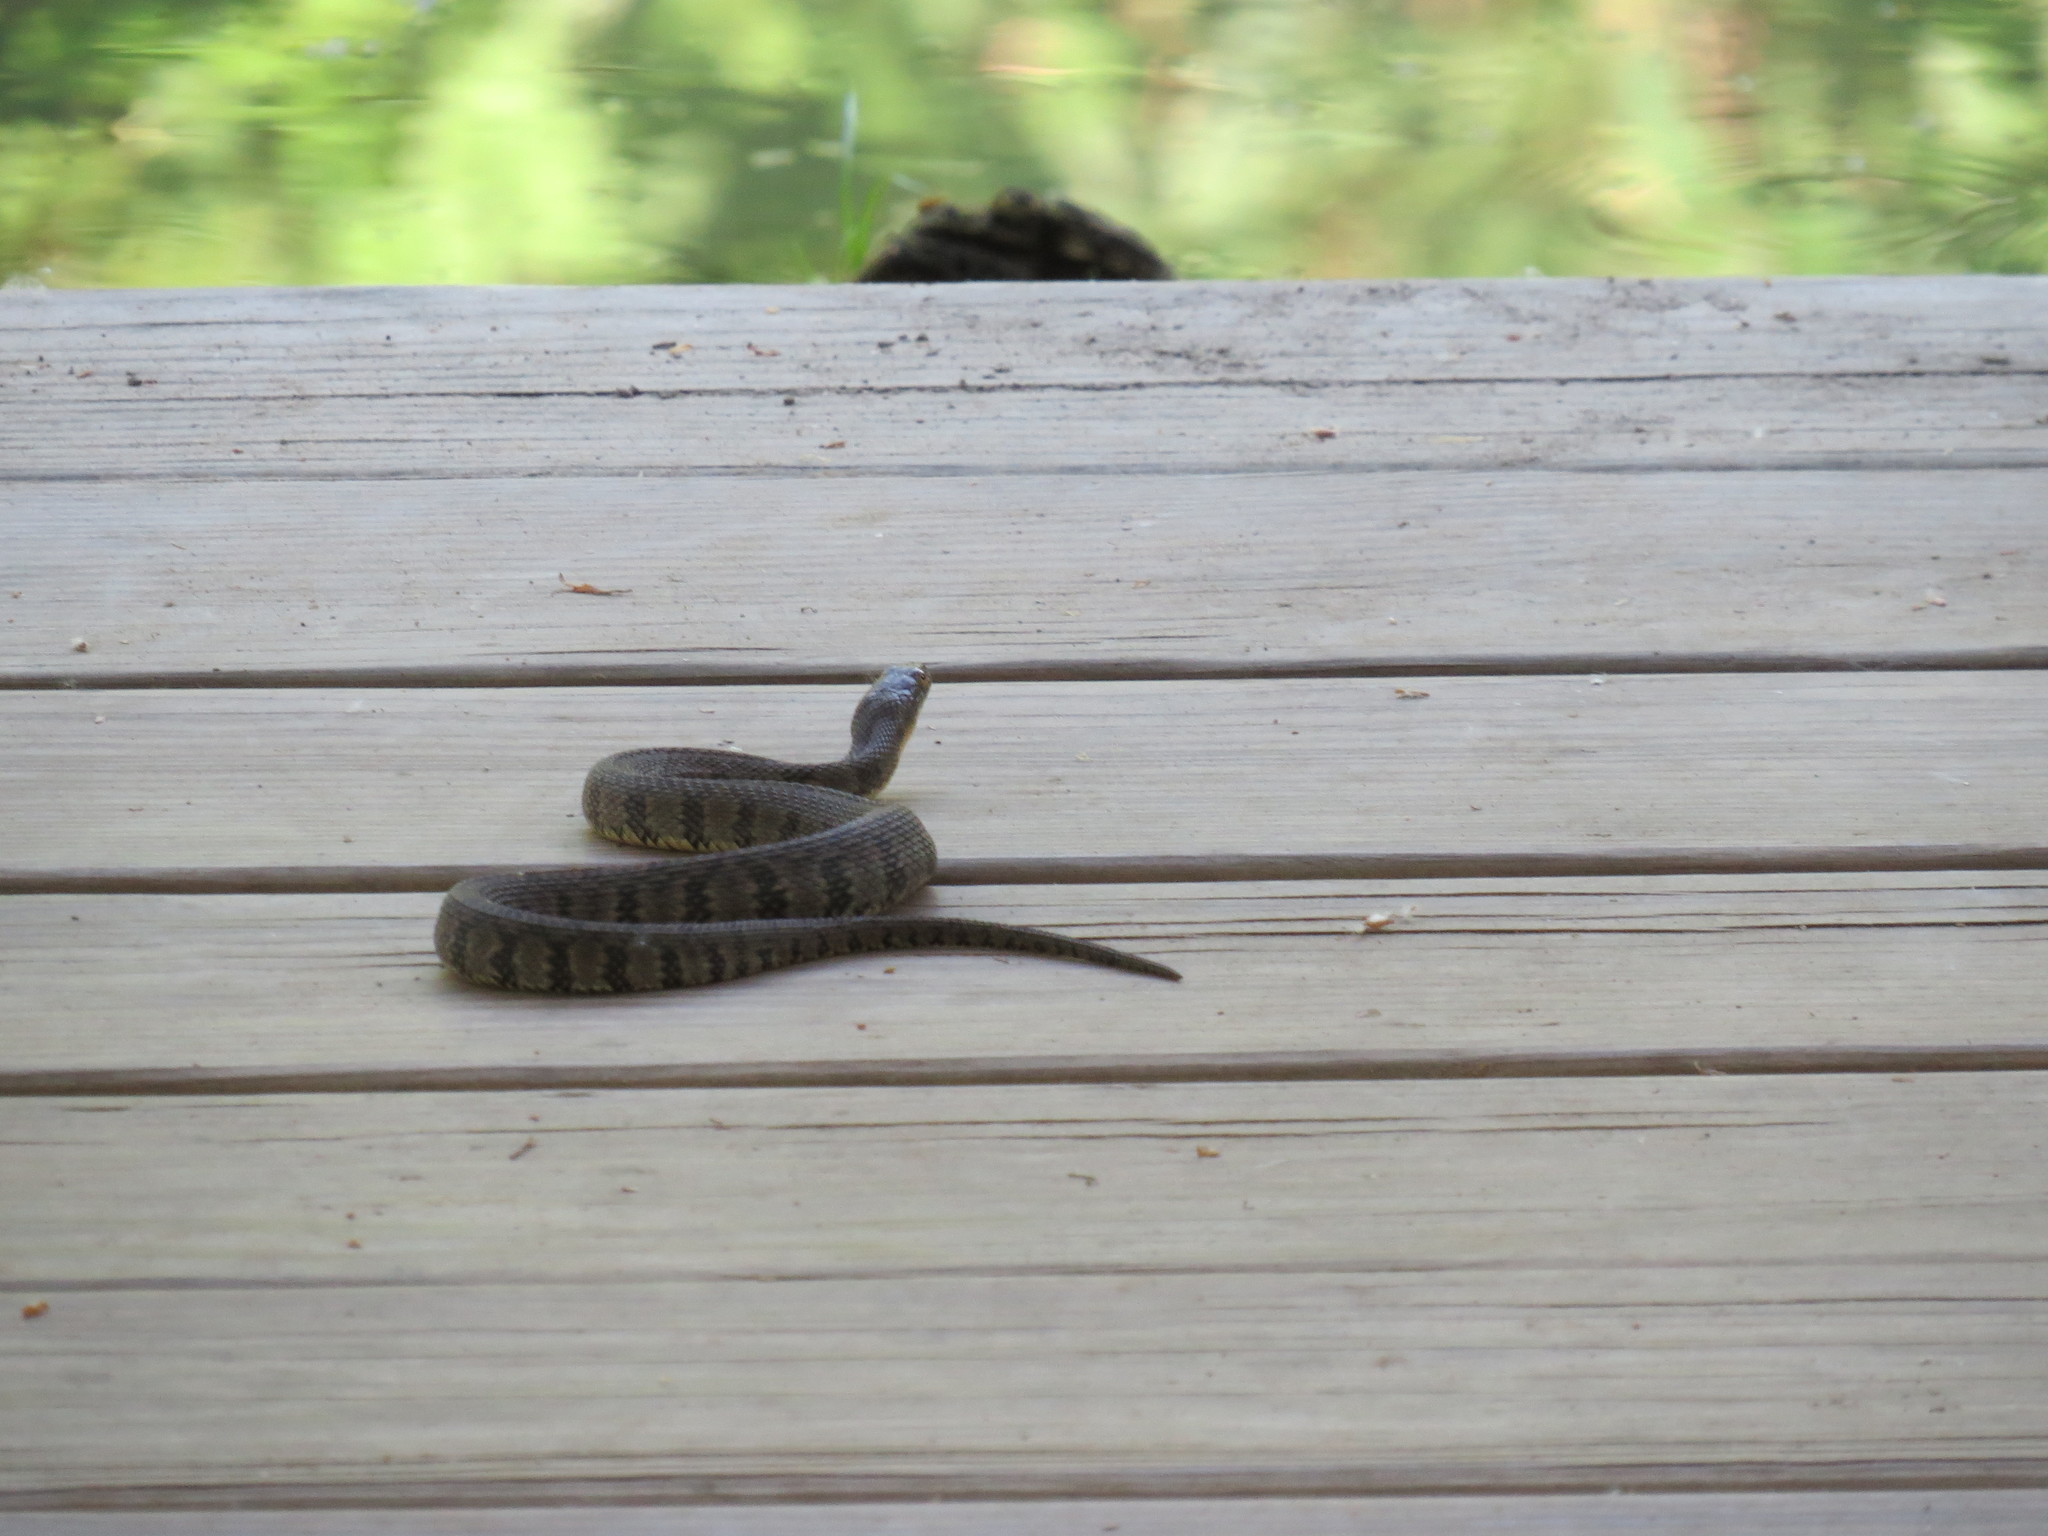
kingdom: Animalia
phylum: Chordata
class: Squamata
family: Colubridae
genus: Nerodia
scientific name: Nerodia rhombifer
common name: Diamondback water snake
